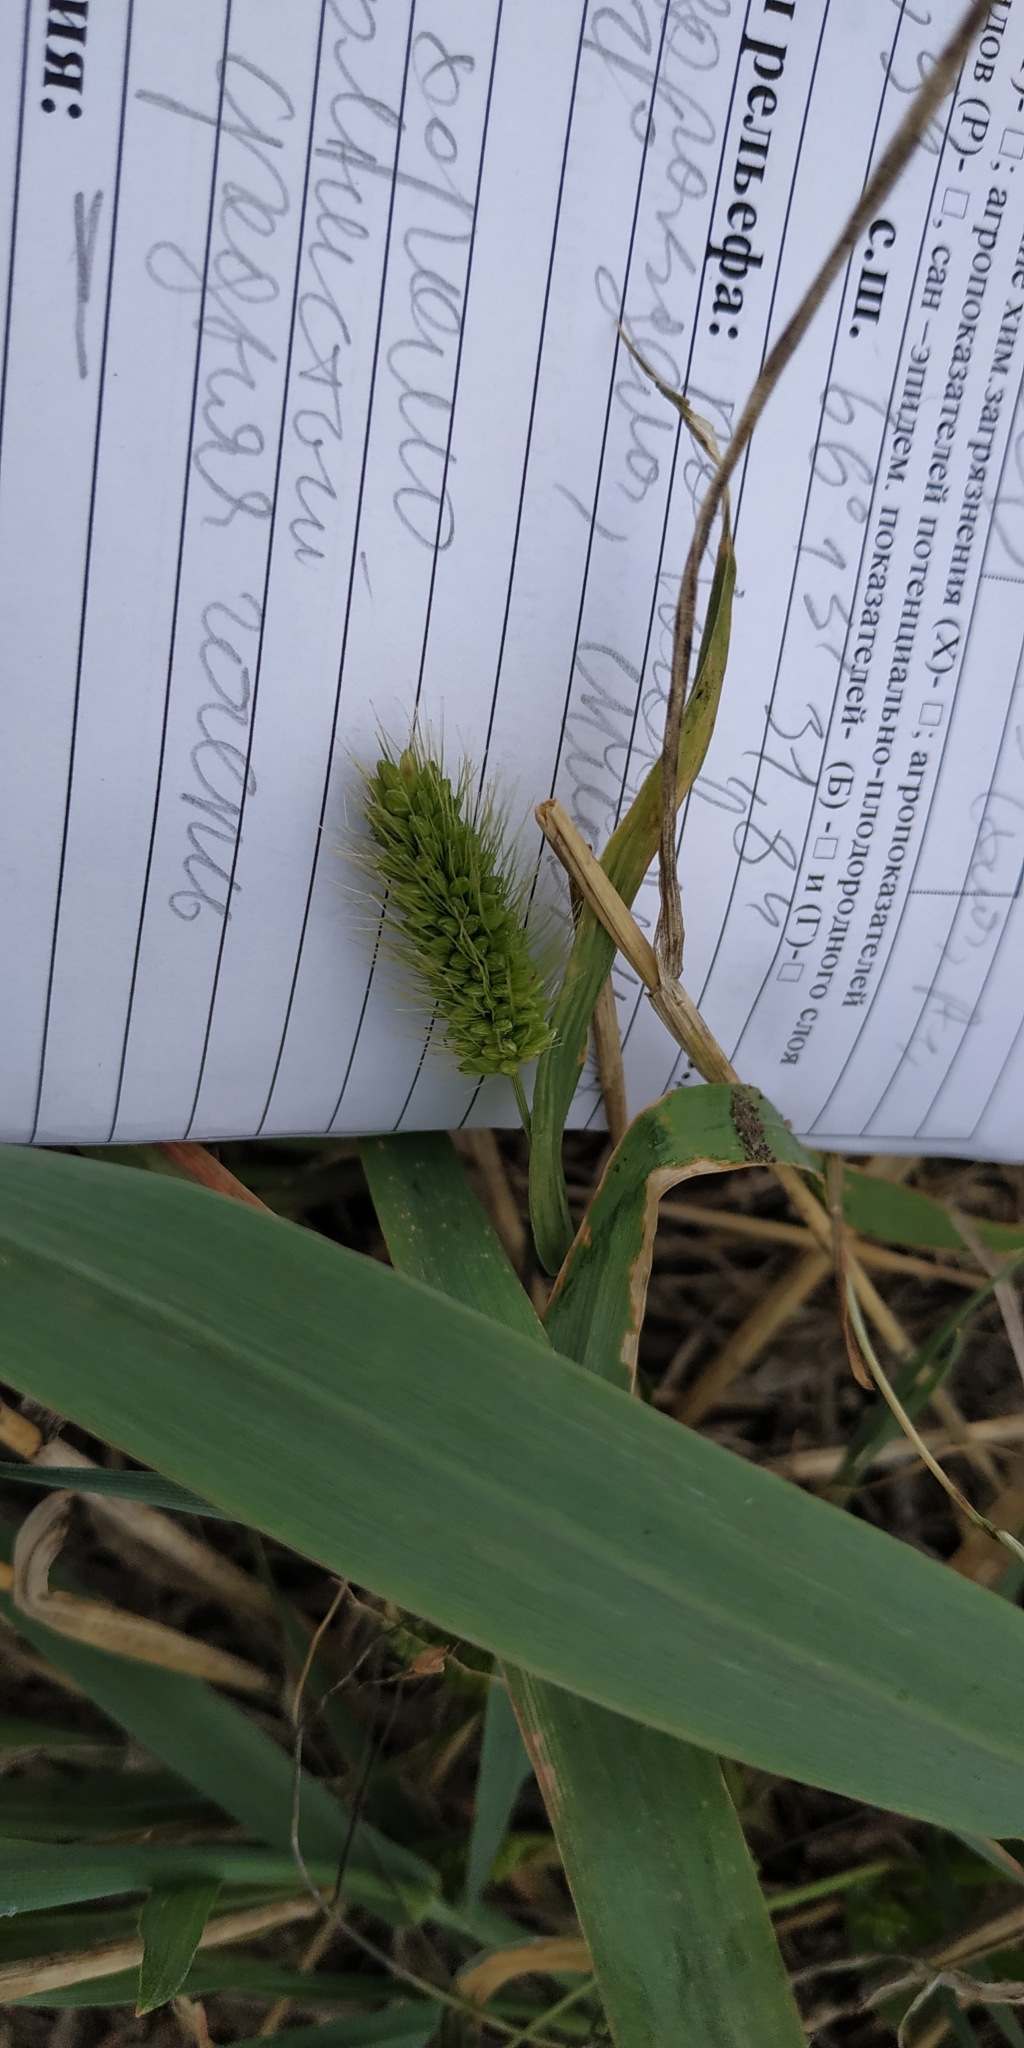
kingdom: Plantae
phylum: Tracheophyta
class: Liliopsida
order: Poales
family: Poaceae
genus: Setaria
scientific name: Setaria viridis
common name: Green bristlegrass
